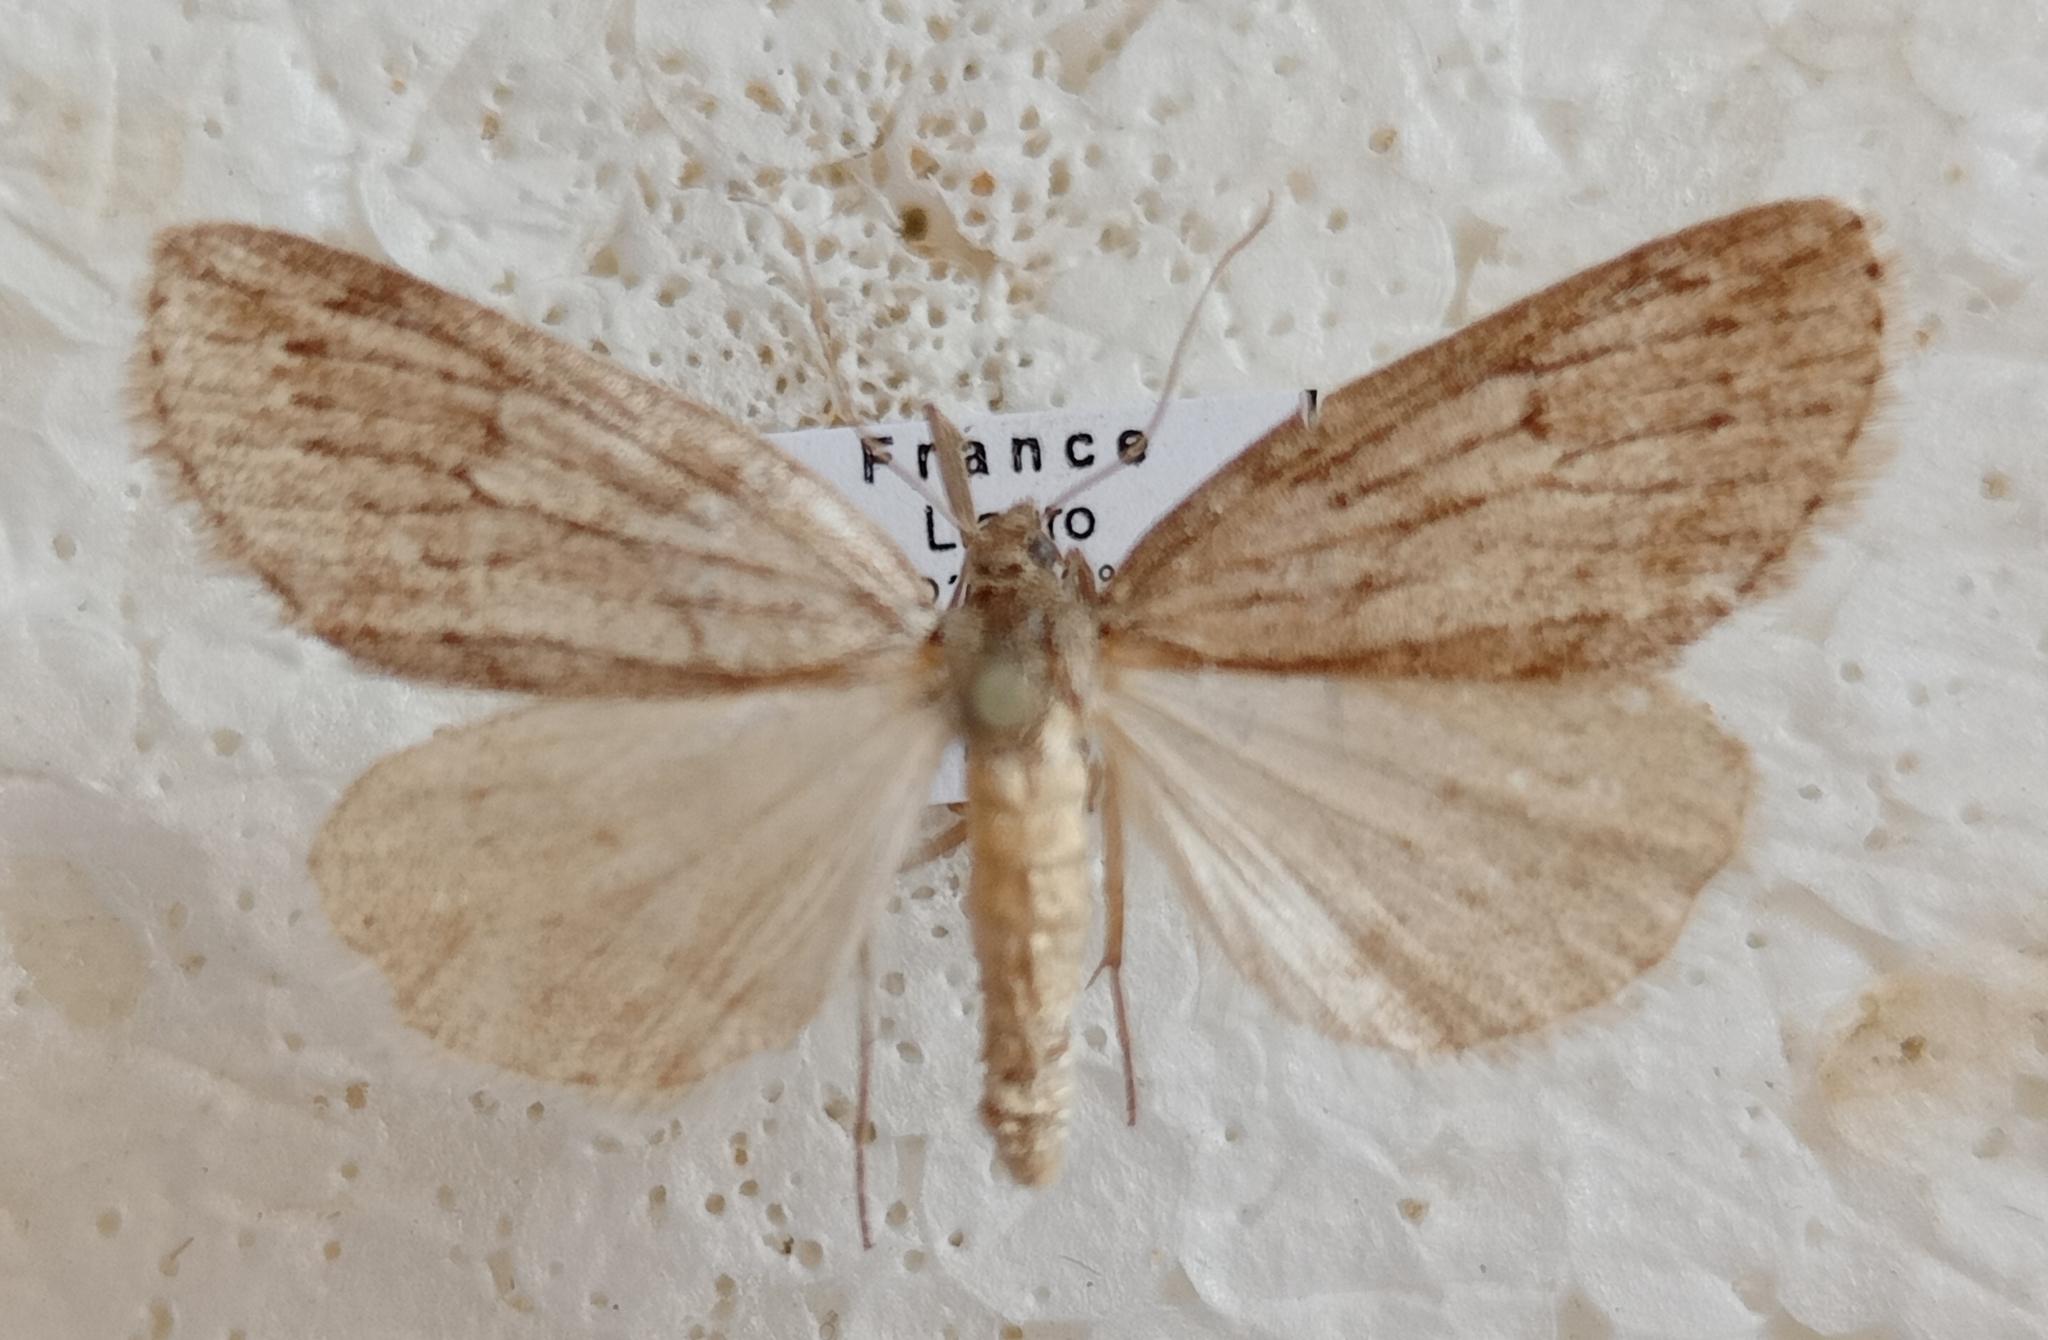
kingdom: Animalia
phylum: Arthropoda
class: Insecta
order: Lepidoptera
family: Geometridae
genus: Pachycnemia
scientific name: Pachycnemia hippocastanaria
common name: Horse chestnut
